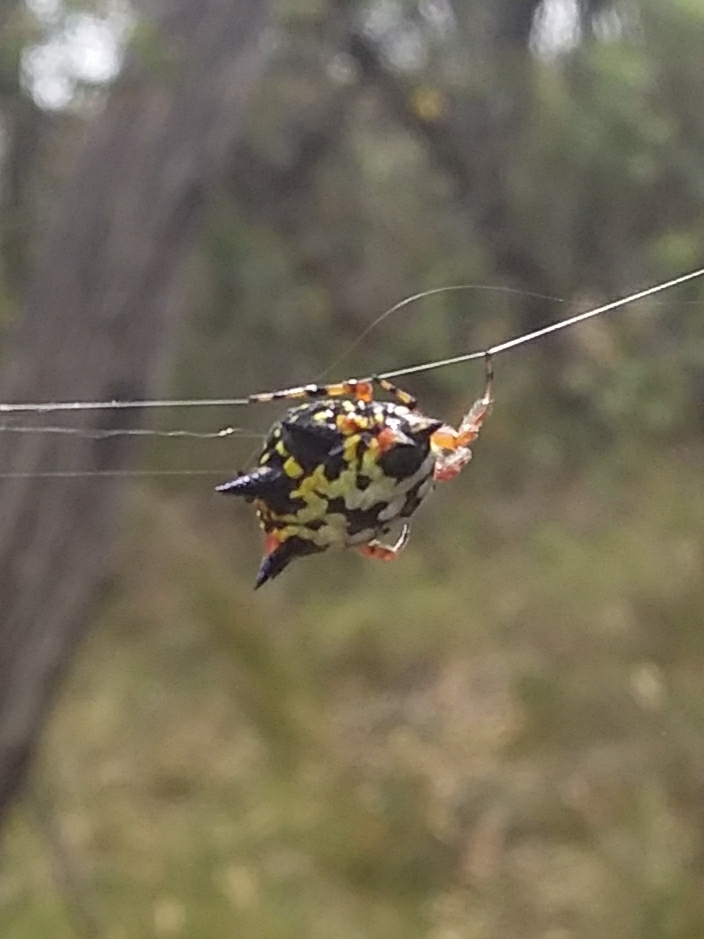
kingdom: Animalia
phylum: Arthropoda
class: Arachnida
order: Araneae
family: Araneidae
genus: Austracantha
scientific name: Austracantha minax
